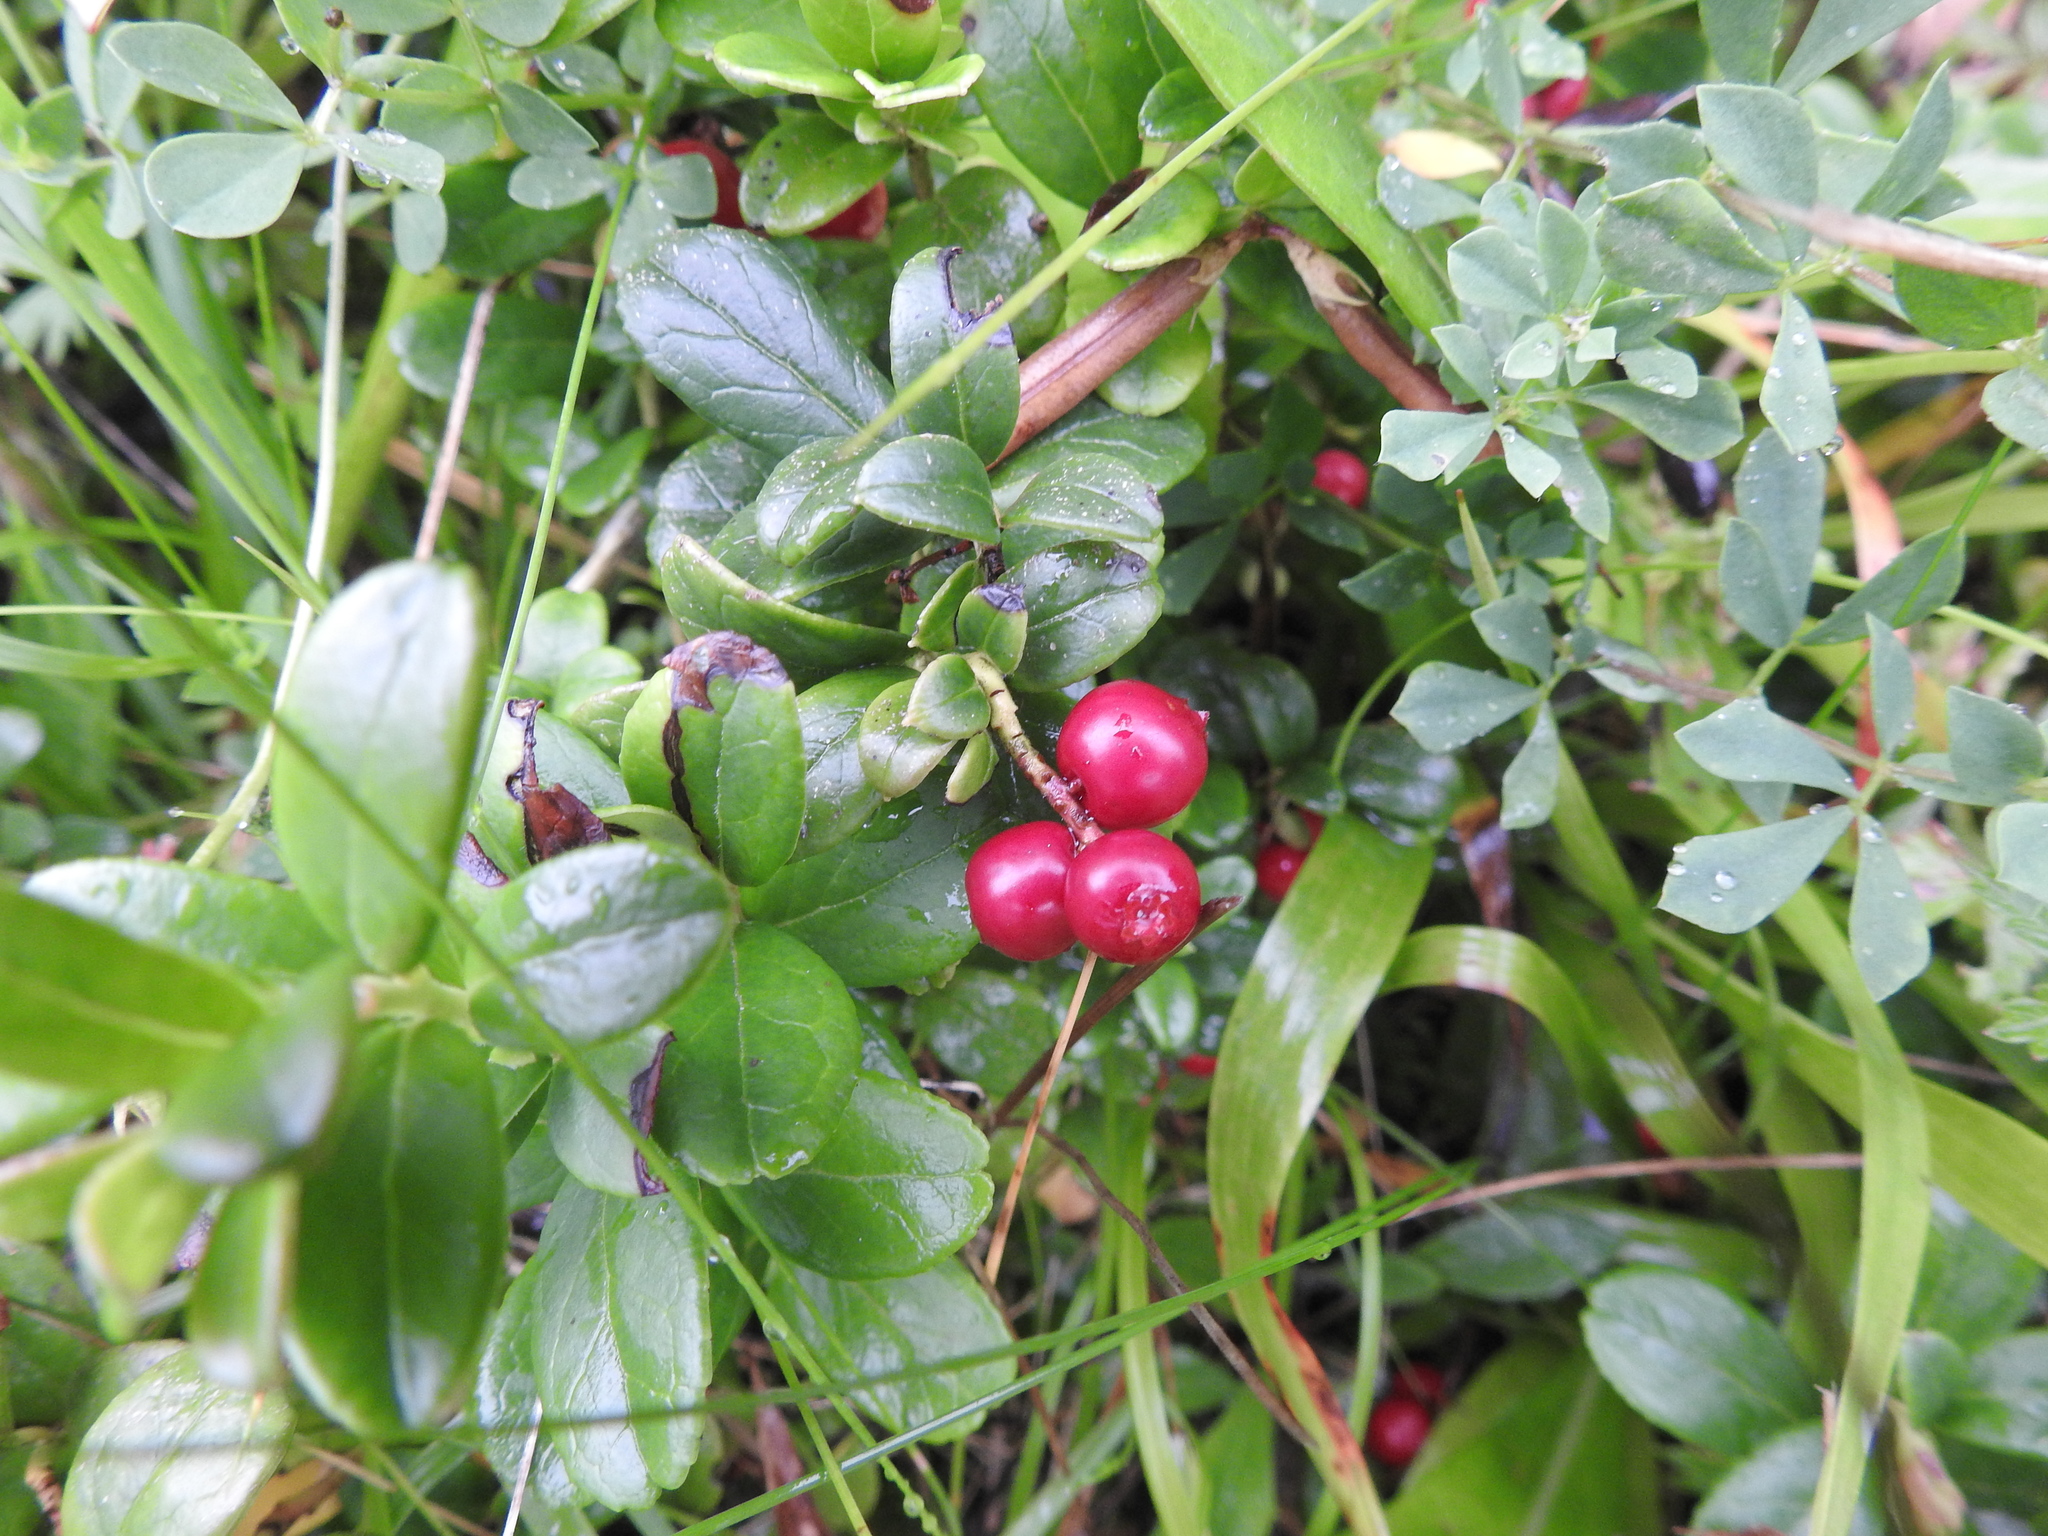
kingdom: Plantae
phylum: Tracheophyta
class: Magnoliopsida
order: Ericales
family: Ericaceae
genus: Vaccinium
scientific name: Vaccinium vitis-idaea
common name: Cowberry
